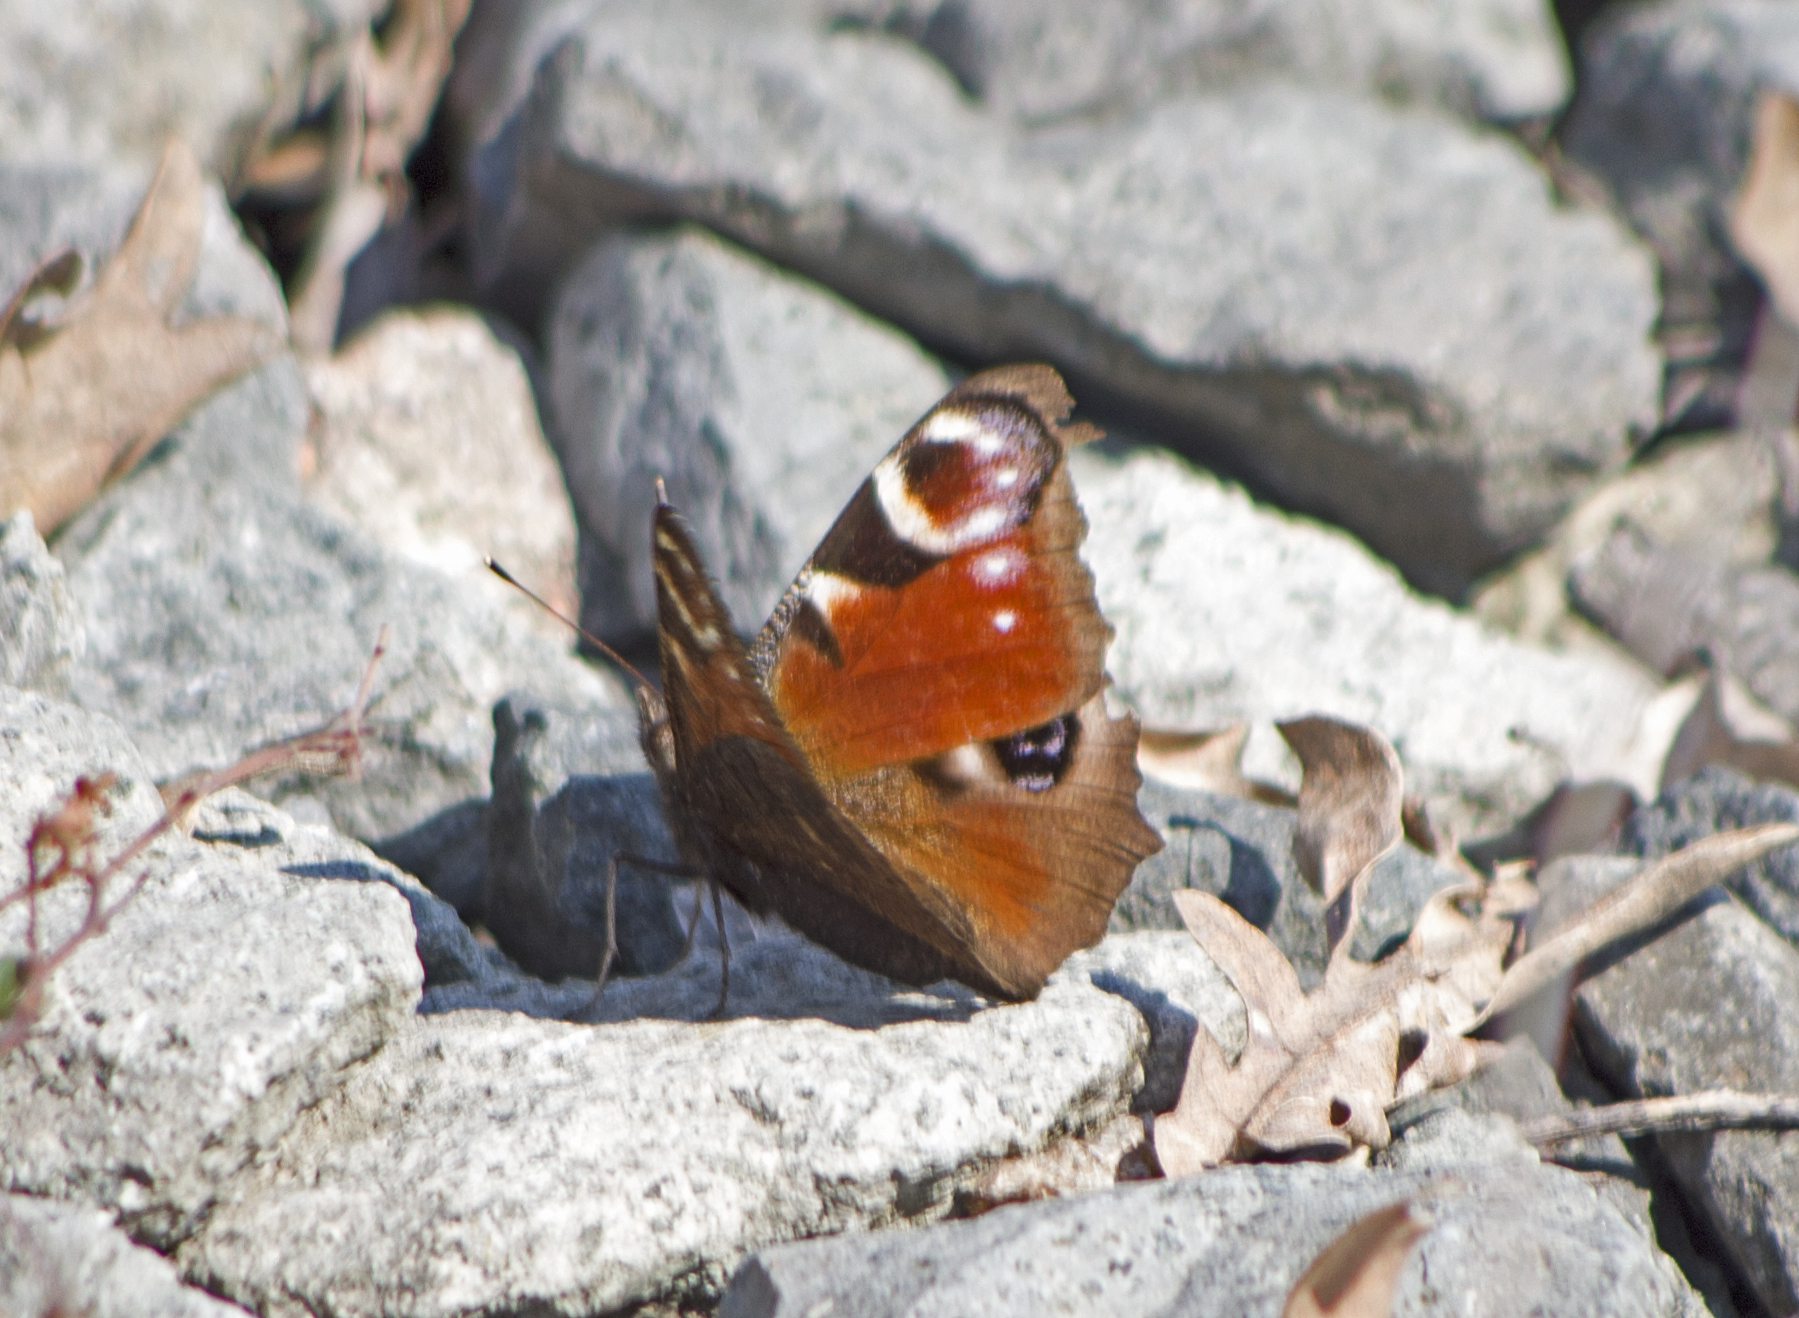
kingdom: Animalia
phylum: Arthropoda
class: Insecta
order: Lepidoptera
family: Nymphalidae
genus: Aglais
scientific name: Aglais io
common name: Peacock
